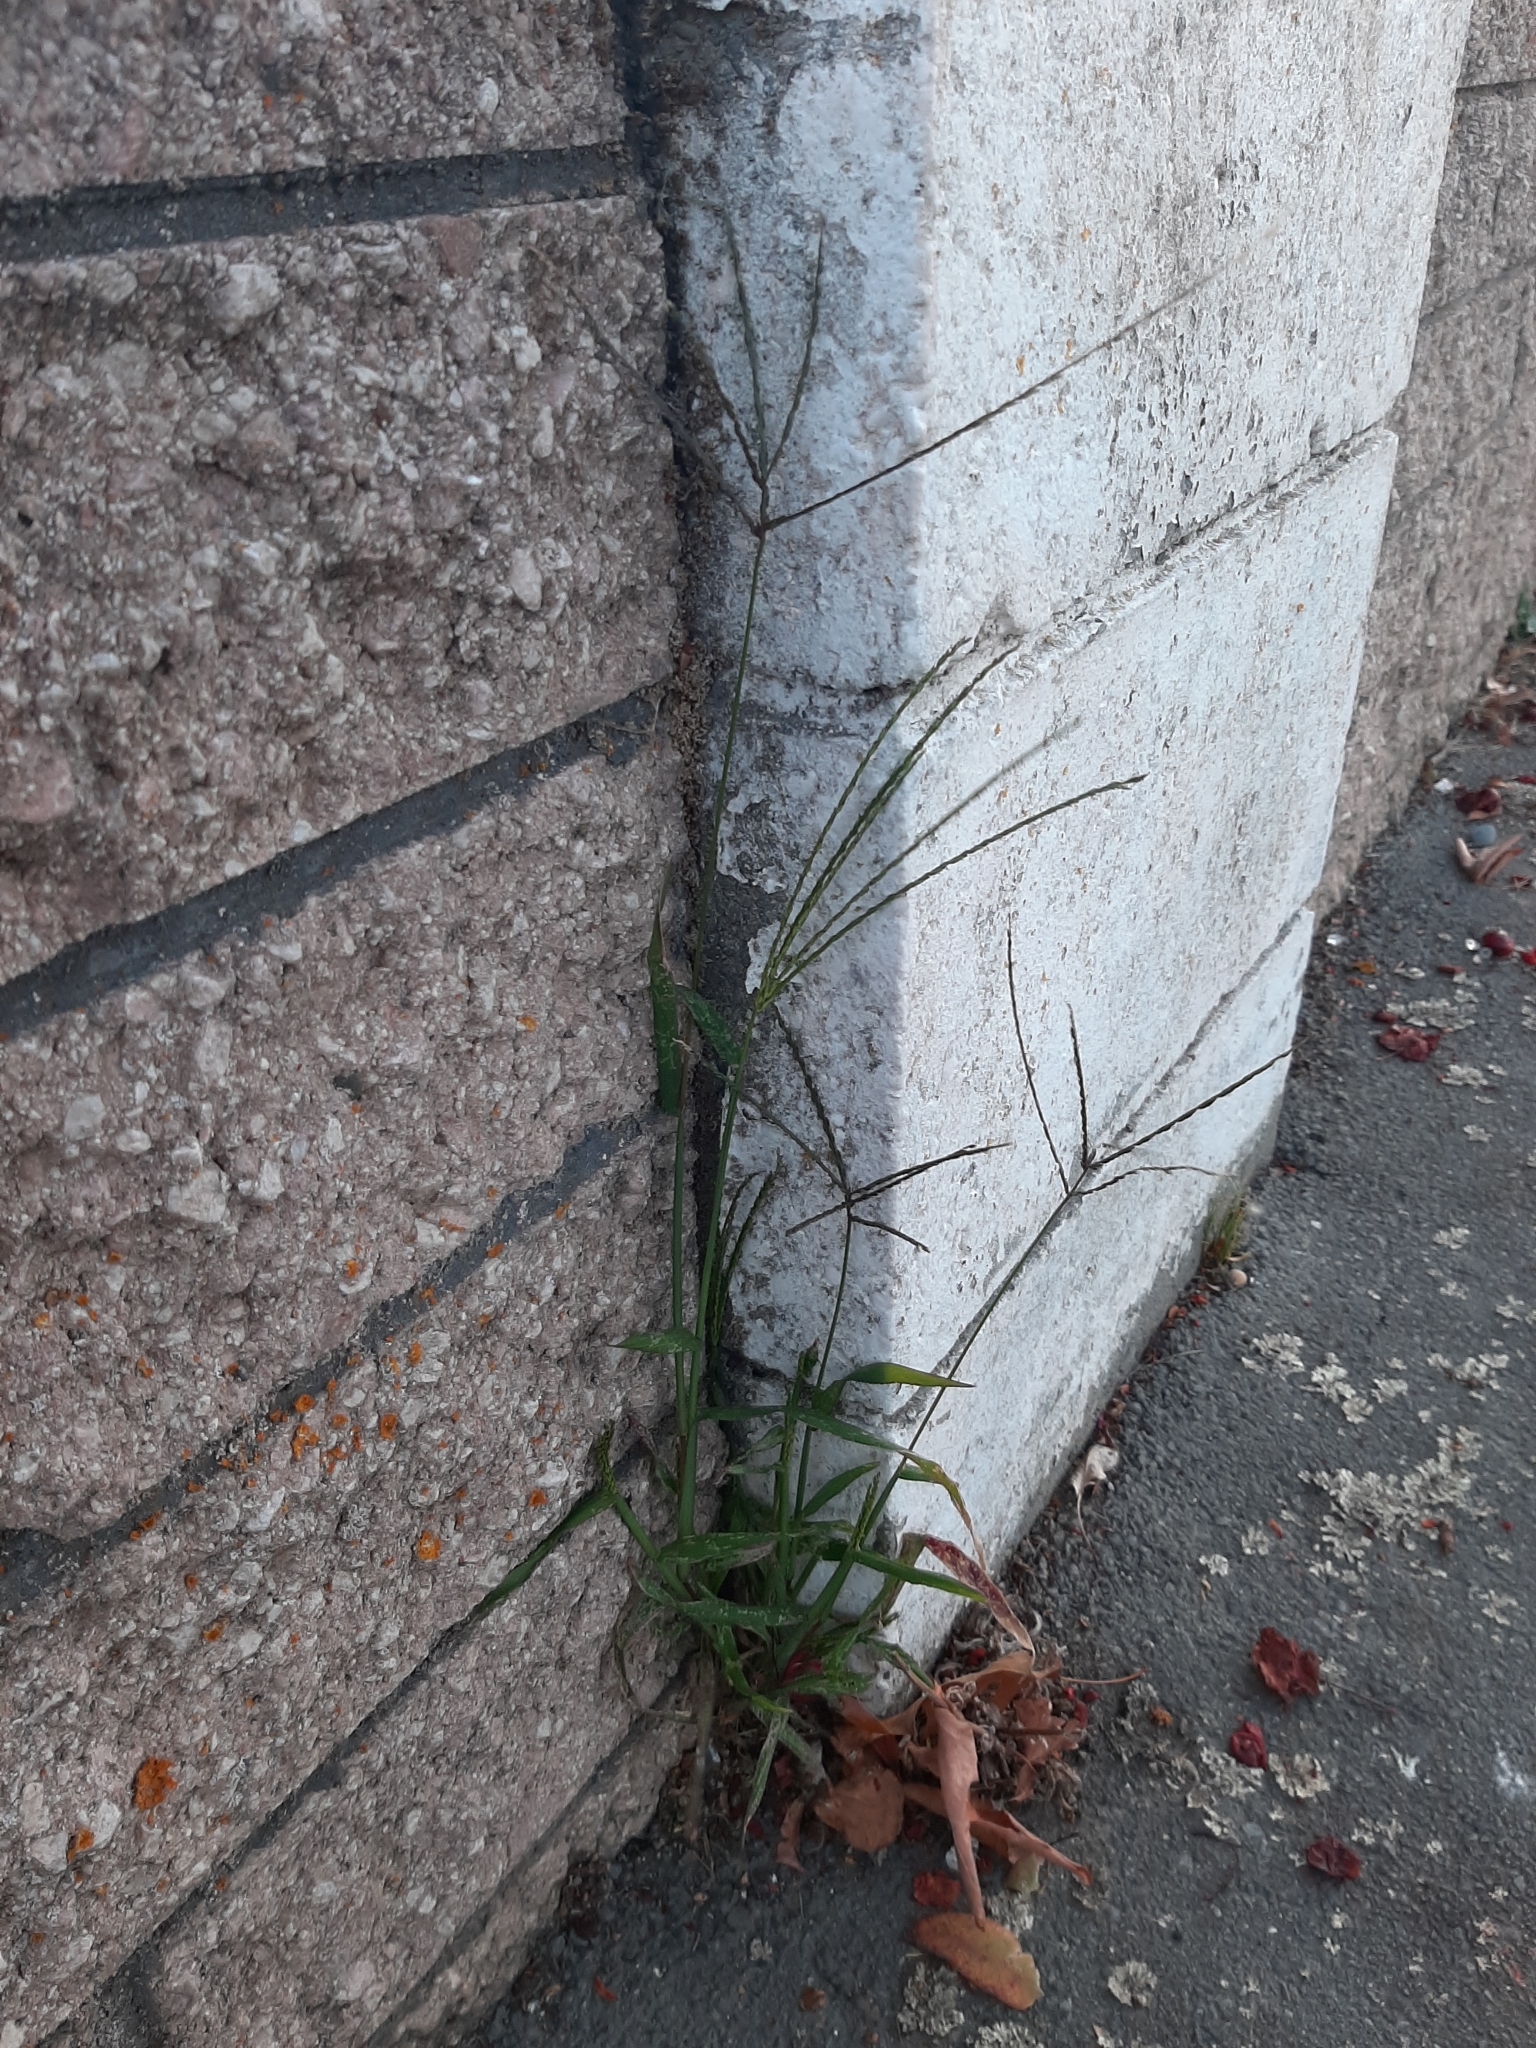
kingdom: Plantae
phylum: Tracheophyta
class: Liliopsida
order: Poales
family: Poaceae
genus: Digitaria
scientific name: Digitaria sanguinalis
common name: Hairy crabgrass
